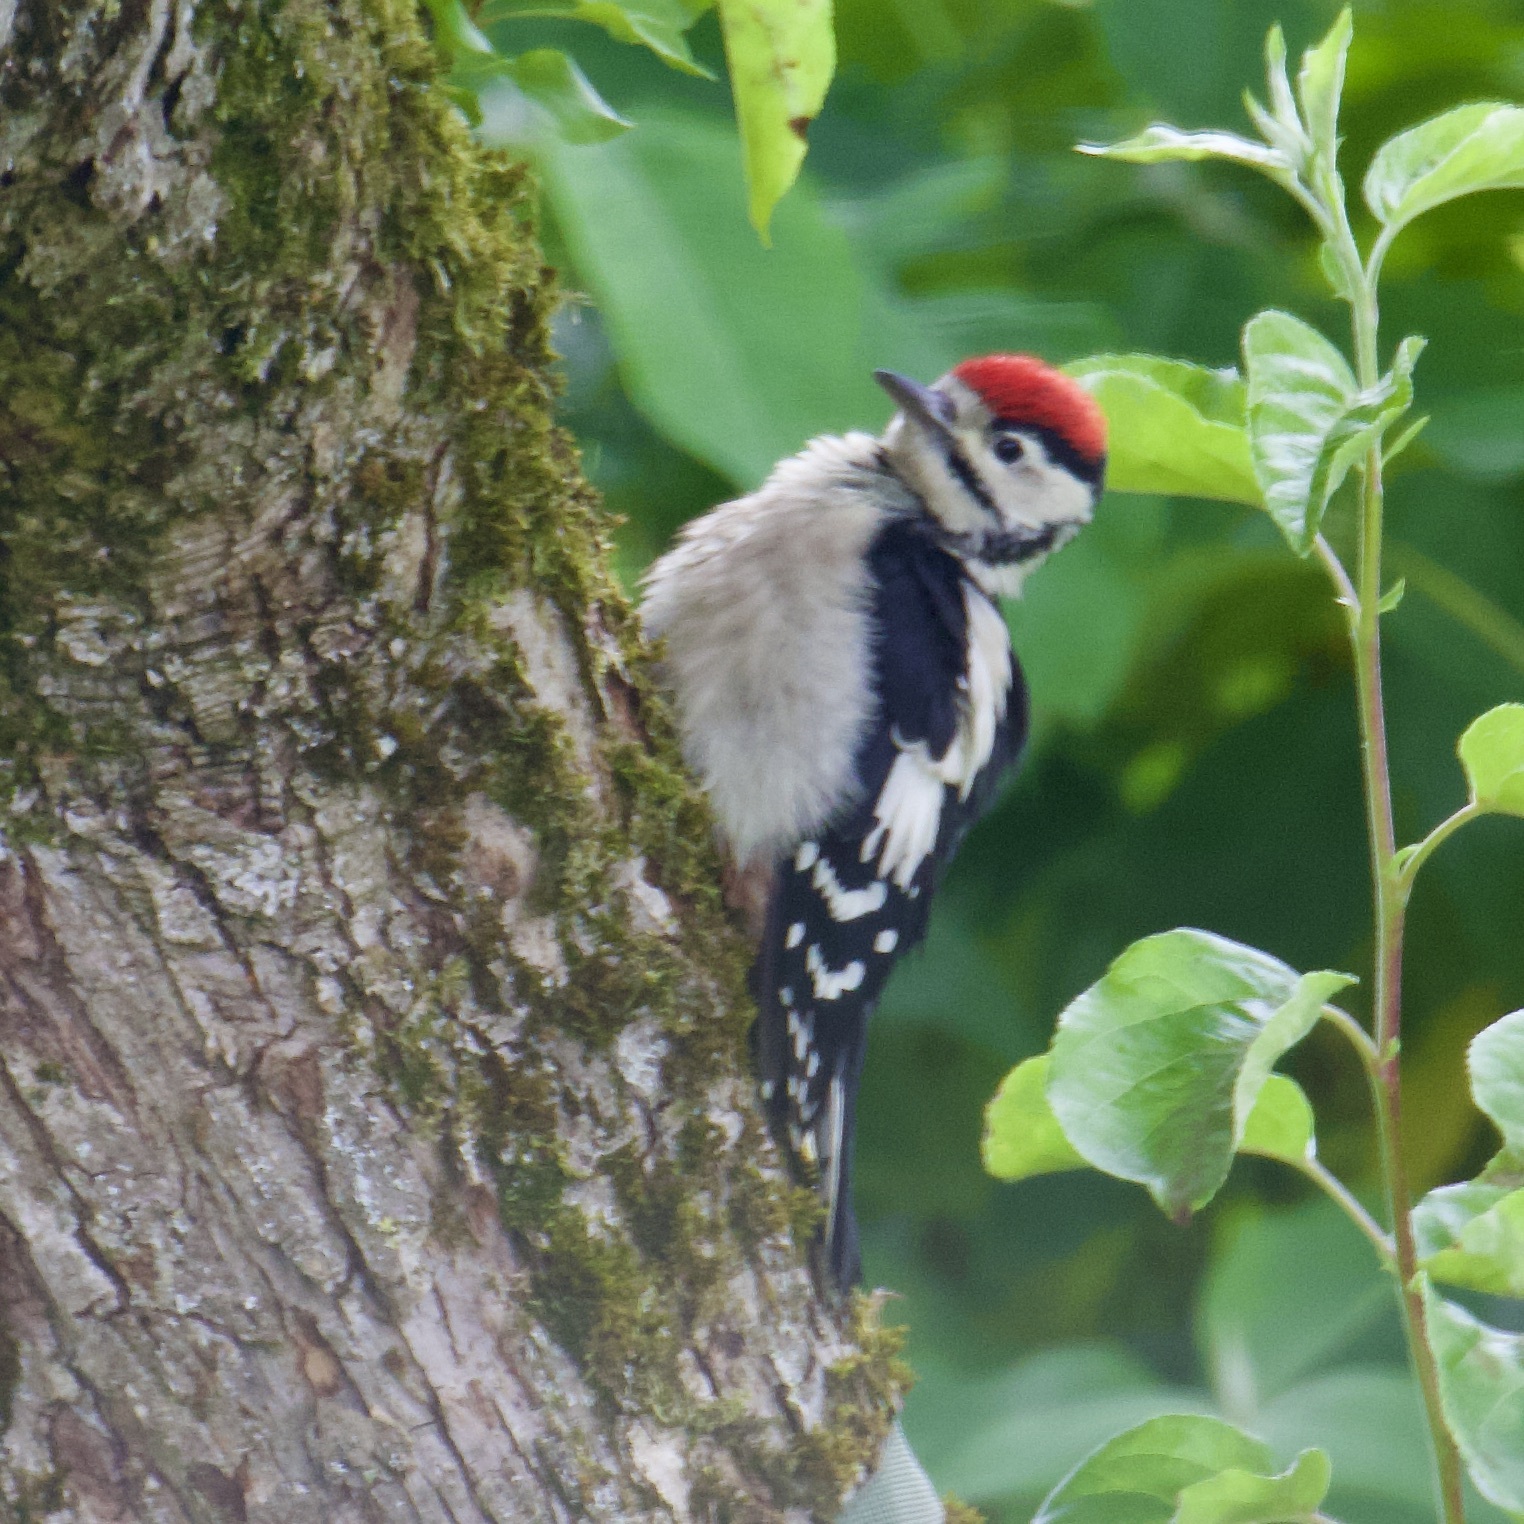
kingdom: Animalia
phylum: Chordata
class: Aves
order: Piciformes
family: Picidae
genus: Dendrocopos
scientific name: Dendrocopos major
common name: Great spotted woodpecker
